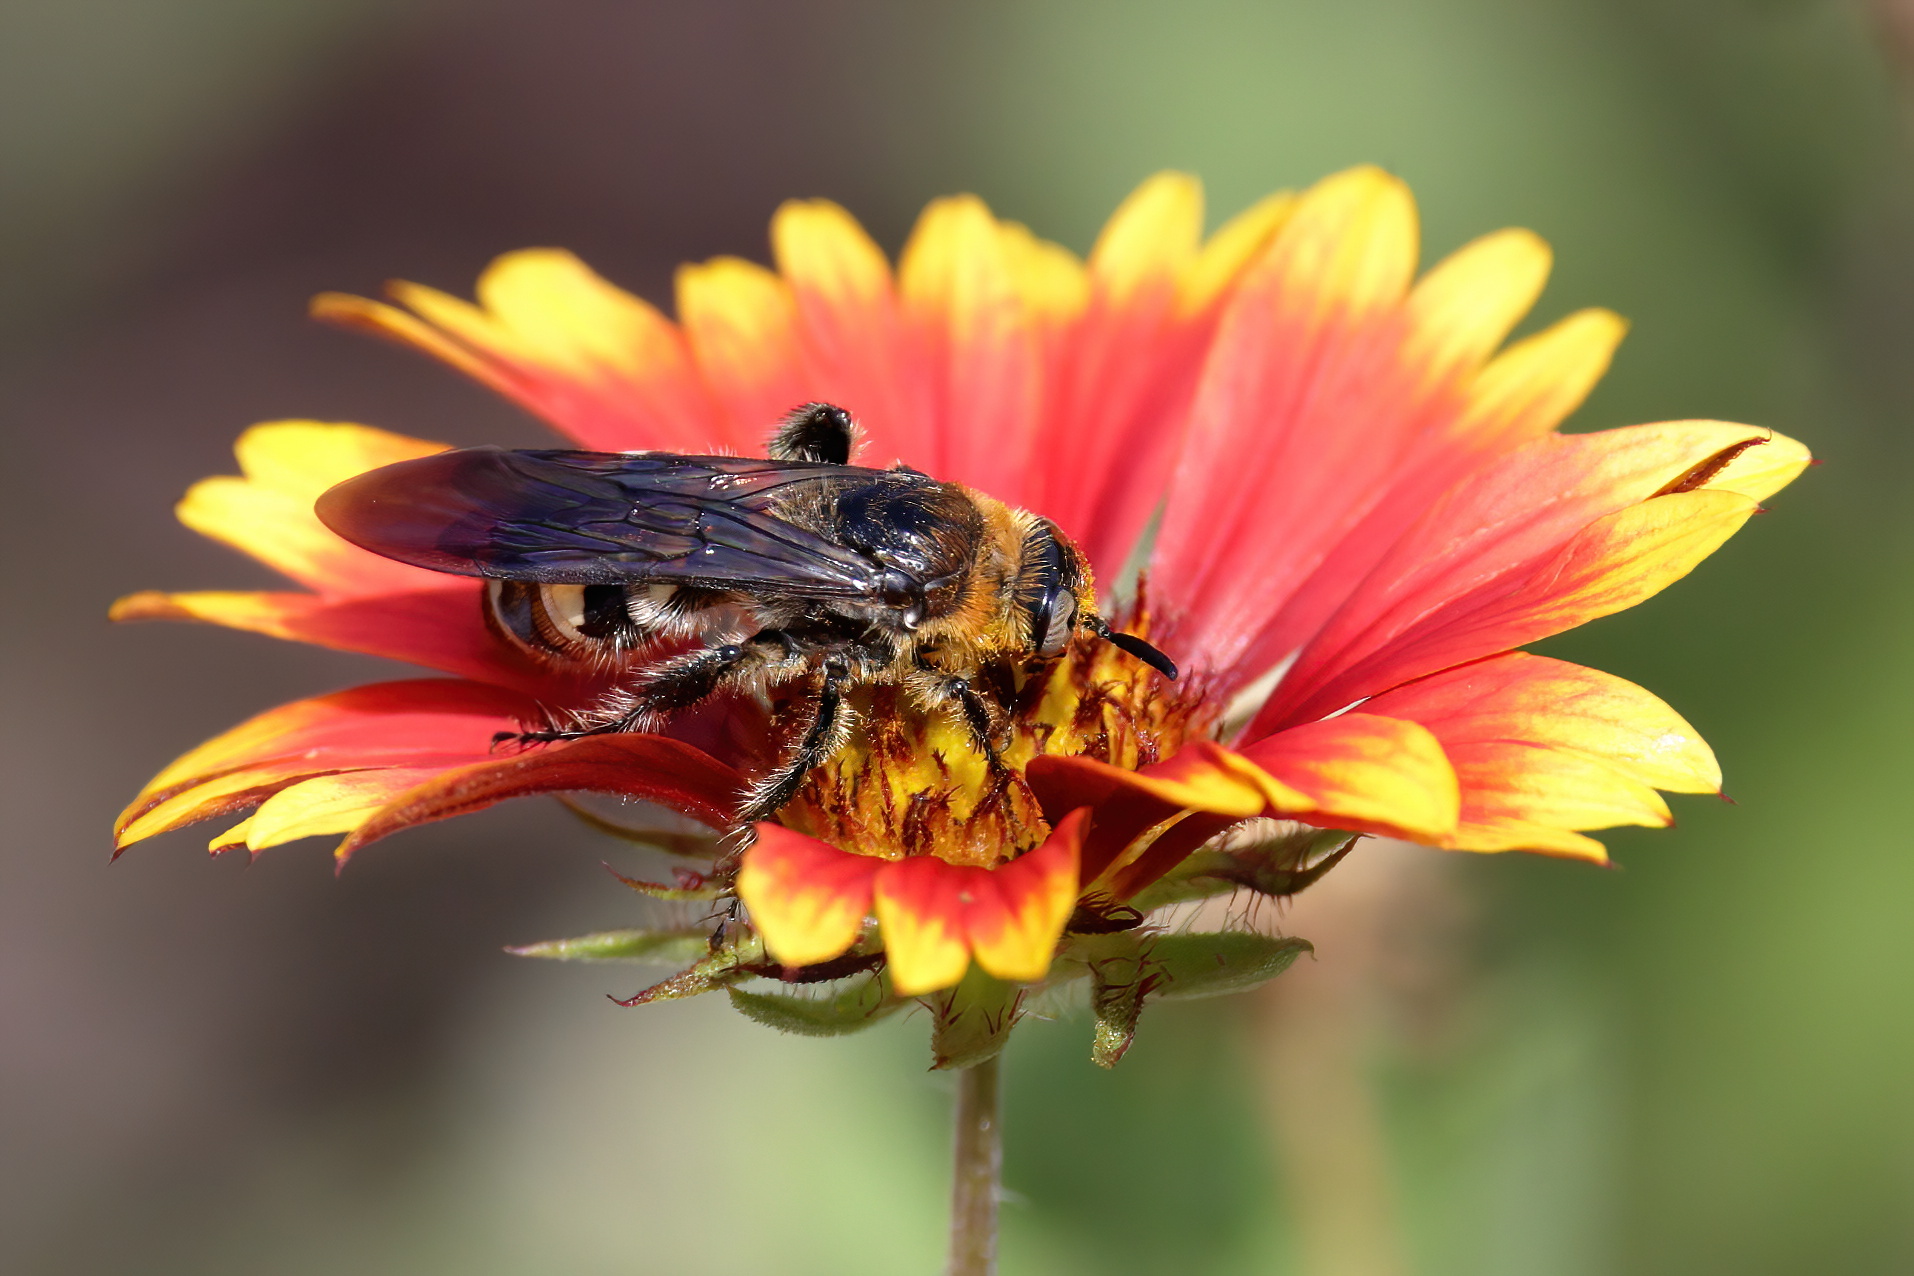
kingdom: Animalia
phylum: Arthropoda
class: Insecta
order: Hymenoptera
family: Scoliidae
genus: Dielis
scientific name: Dielis
